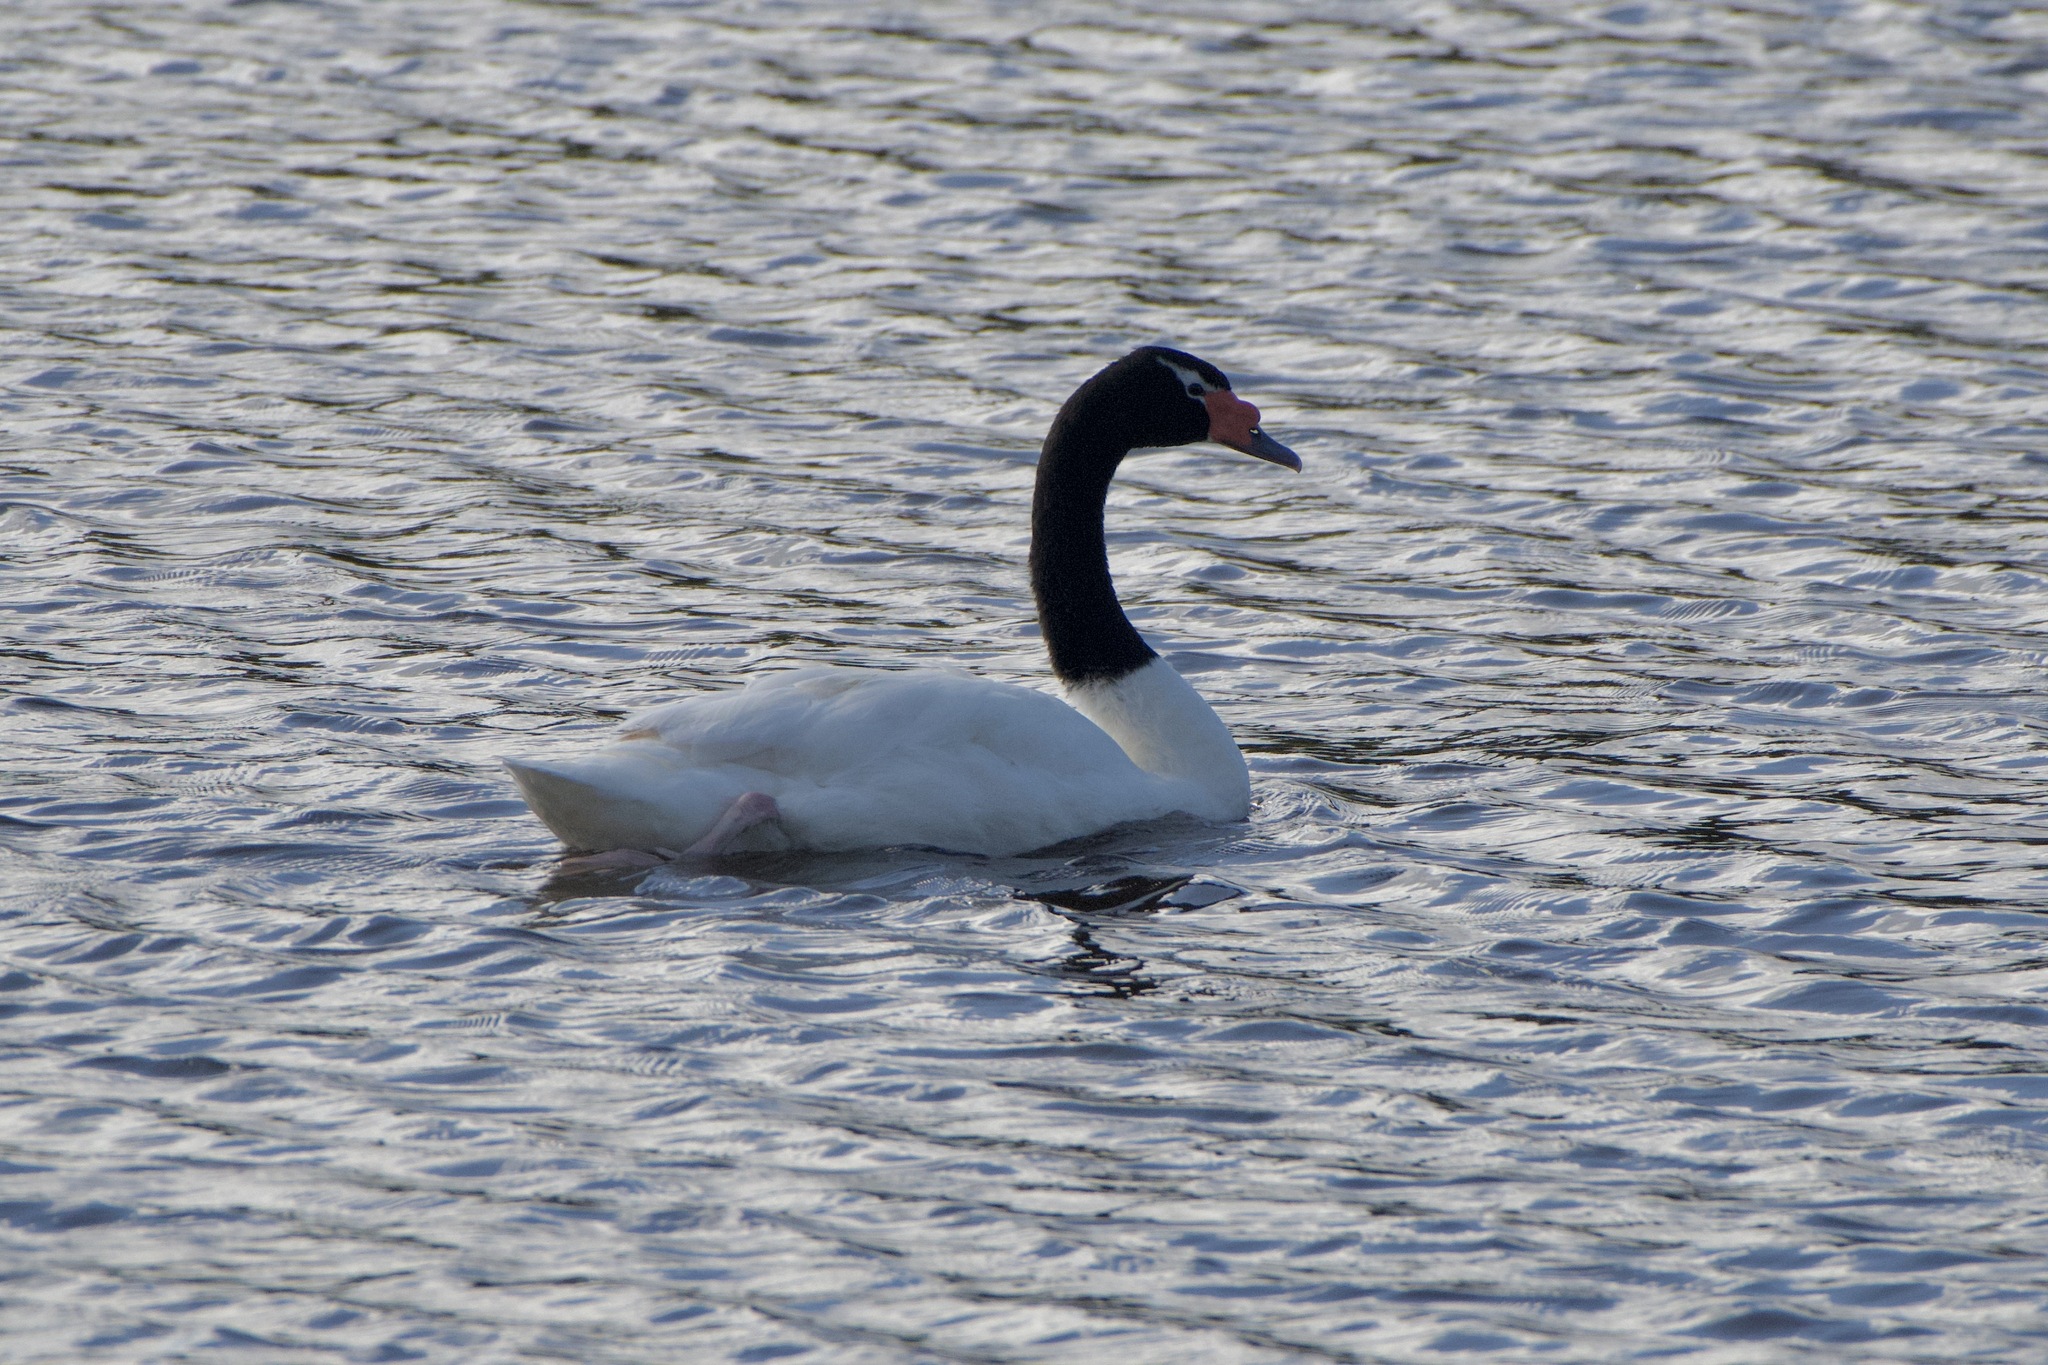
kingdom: Animalia
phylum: Chordata
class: Aves
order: Anseriformes
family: Anatidae
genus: Cygnus
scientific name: Cygnus melancoryphus
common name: Black-necked swan
